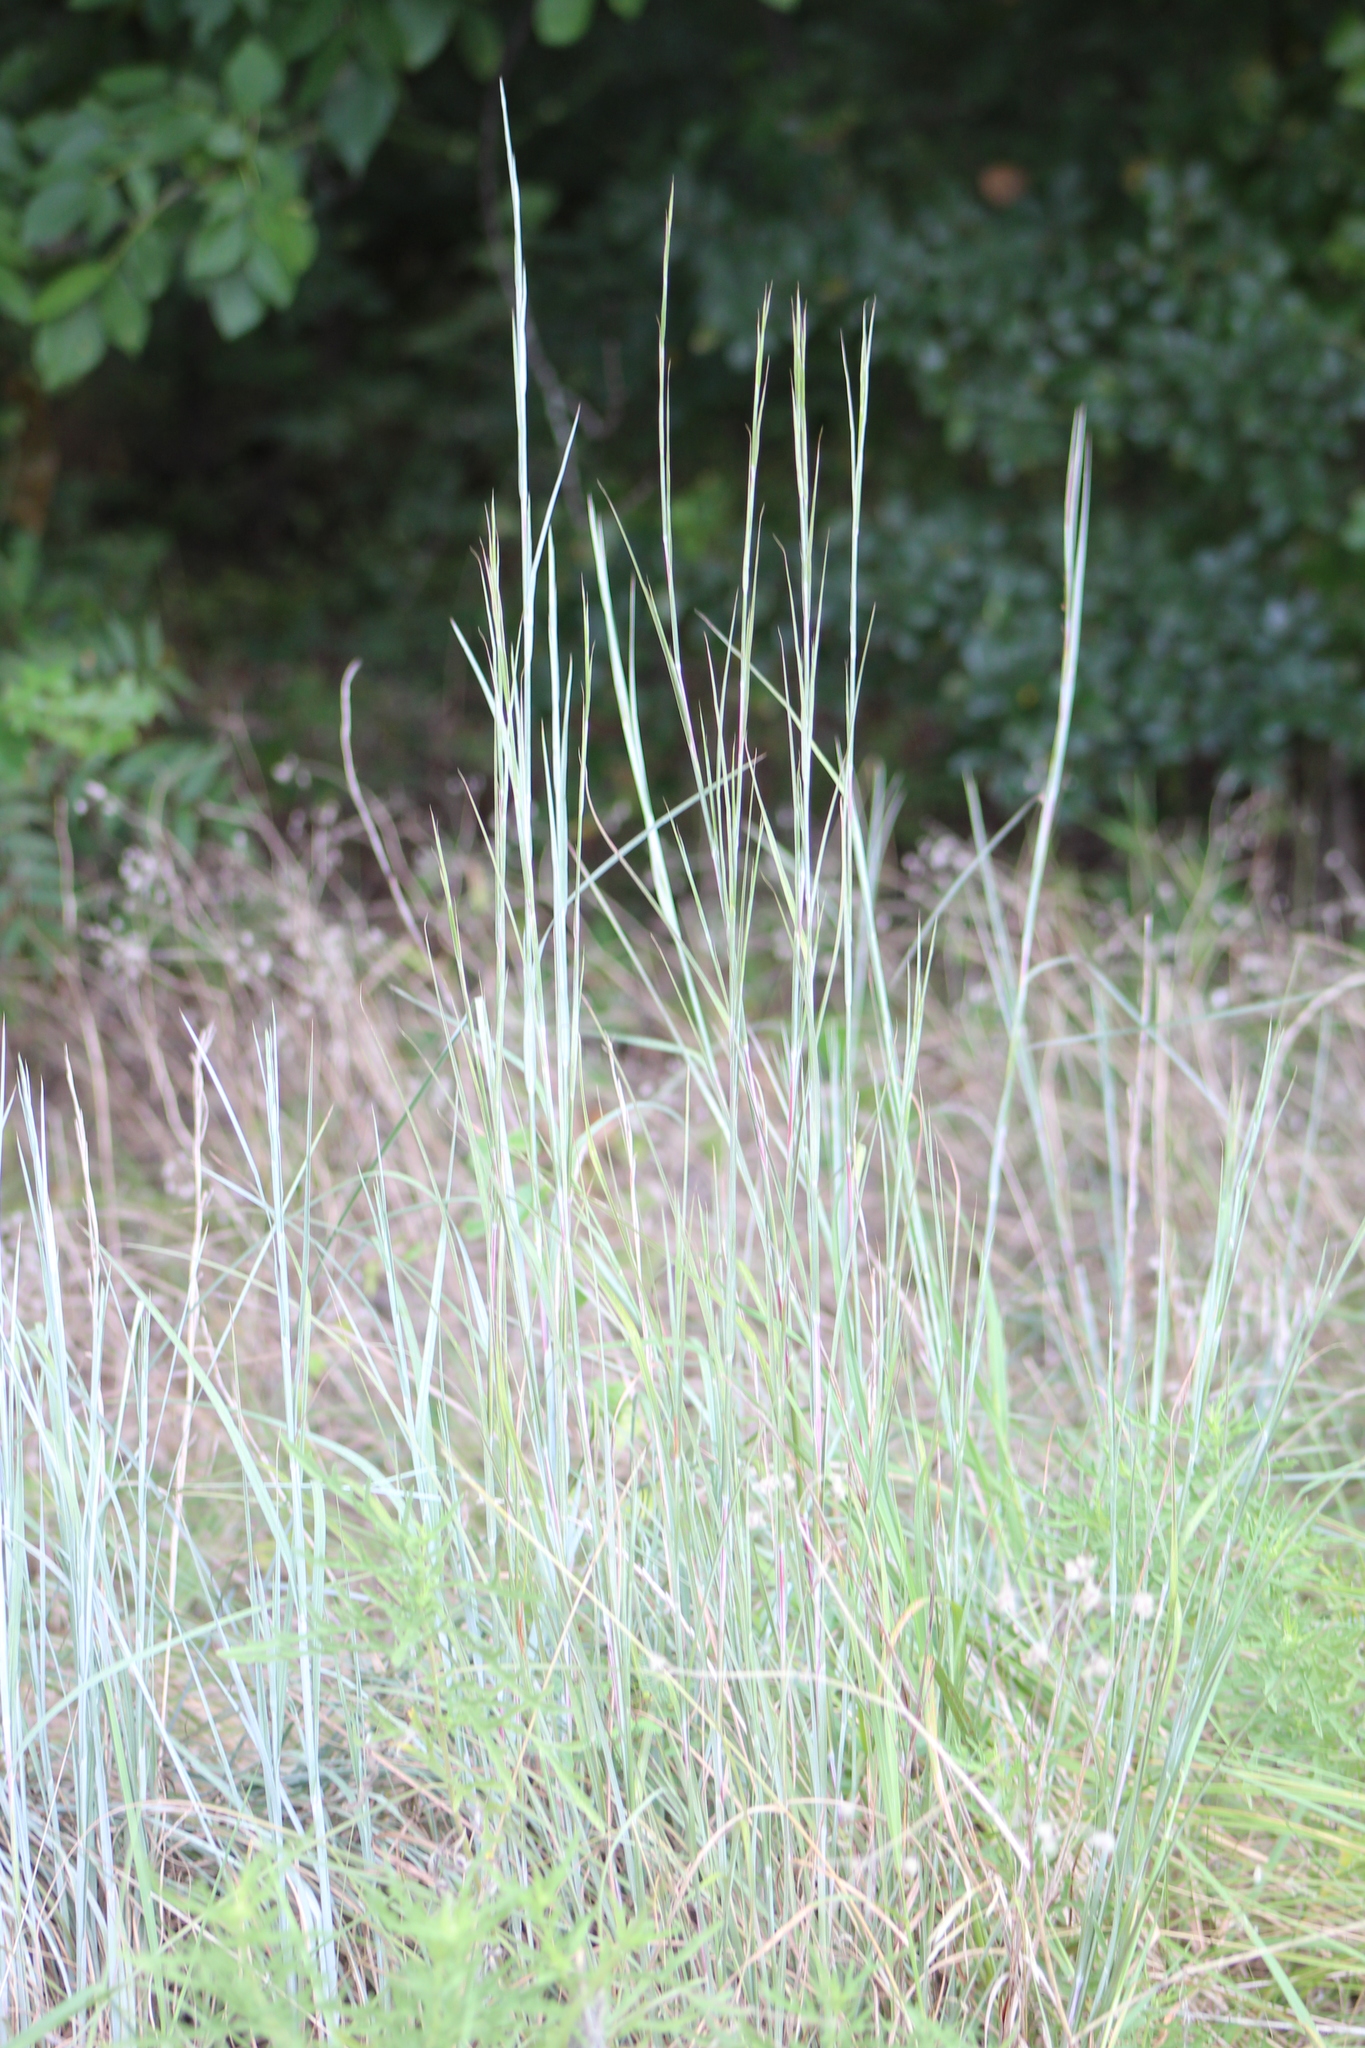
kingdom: Plantae
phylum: Tracheophyta
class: Liliopsida
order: Poales
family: Poaceae
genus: Schizachyrium
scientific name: Schizachyrium scoparium
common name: Little bluestem
